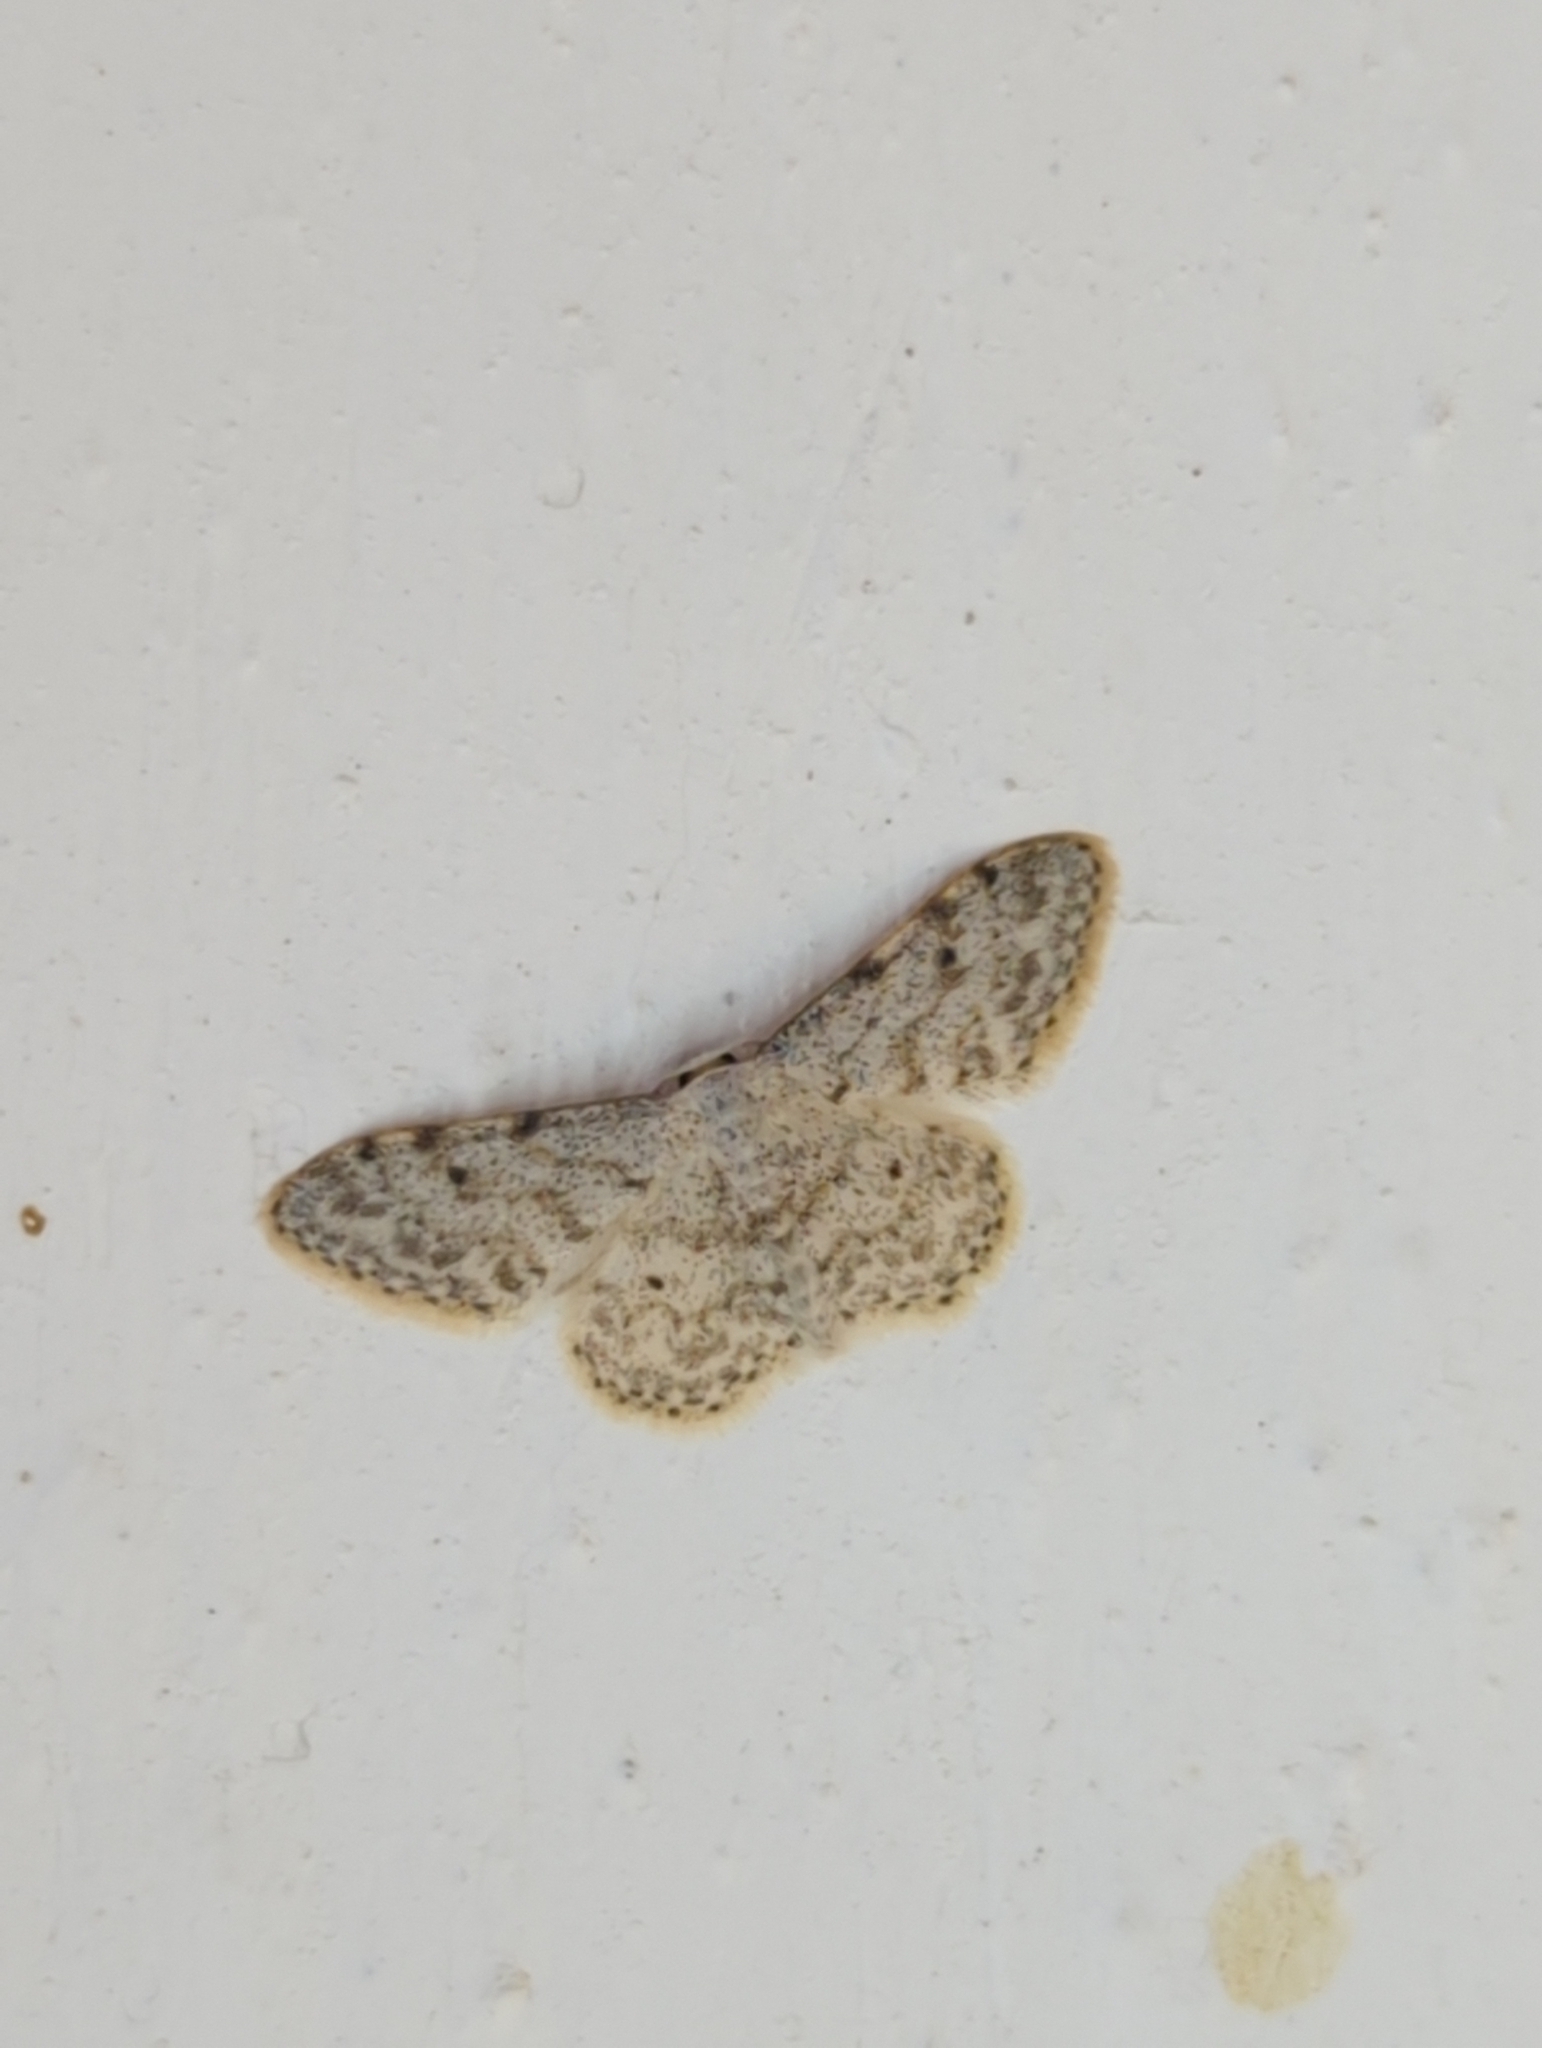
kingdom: Animalia
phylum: Arthropoda
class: Insecta
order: Lepidoptera
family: Geometridae
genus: Idaea
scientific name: Idaea camparia
